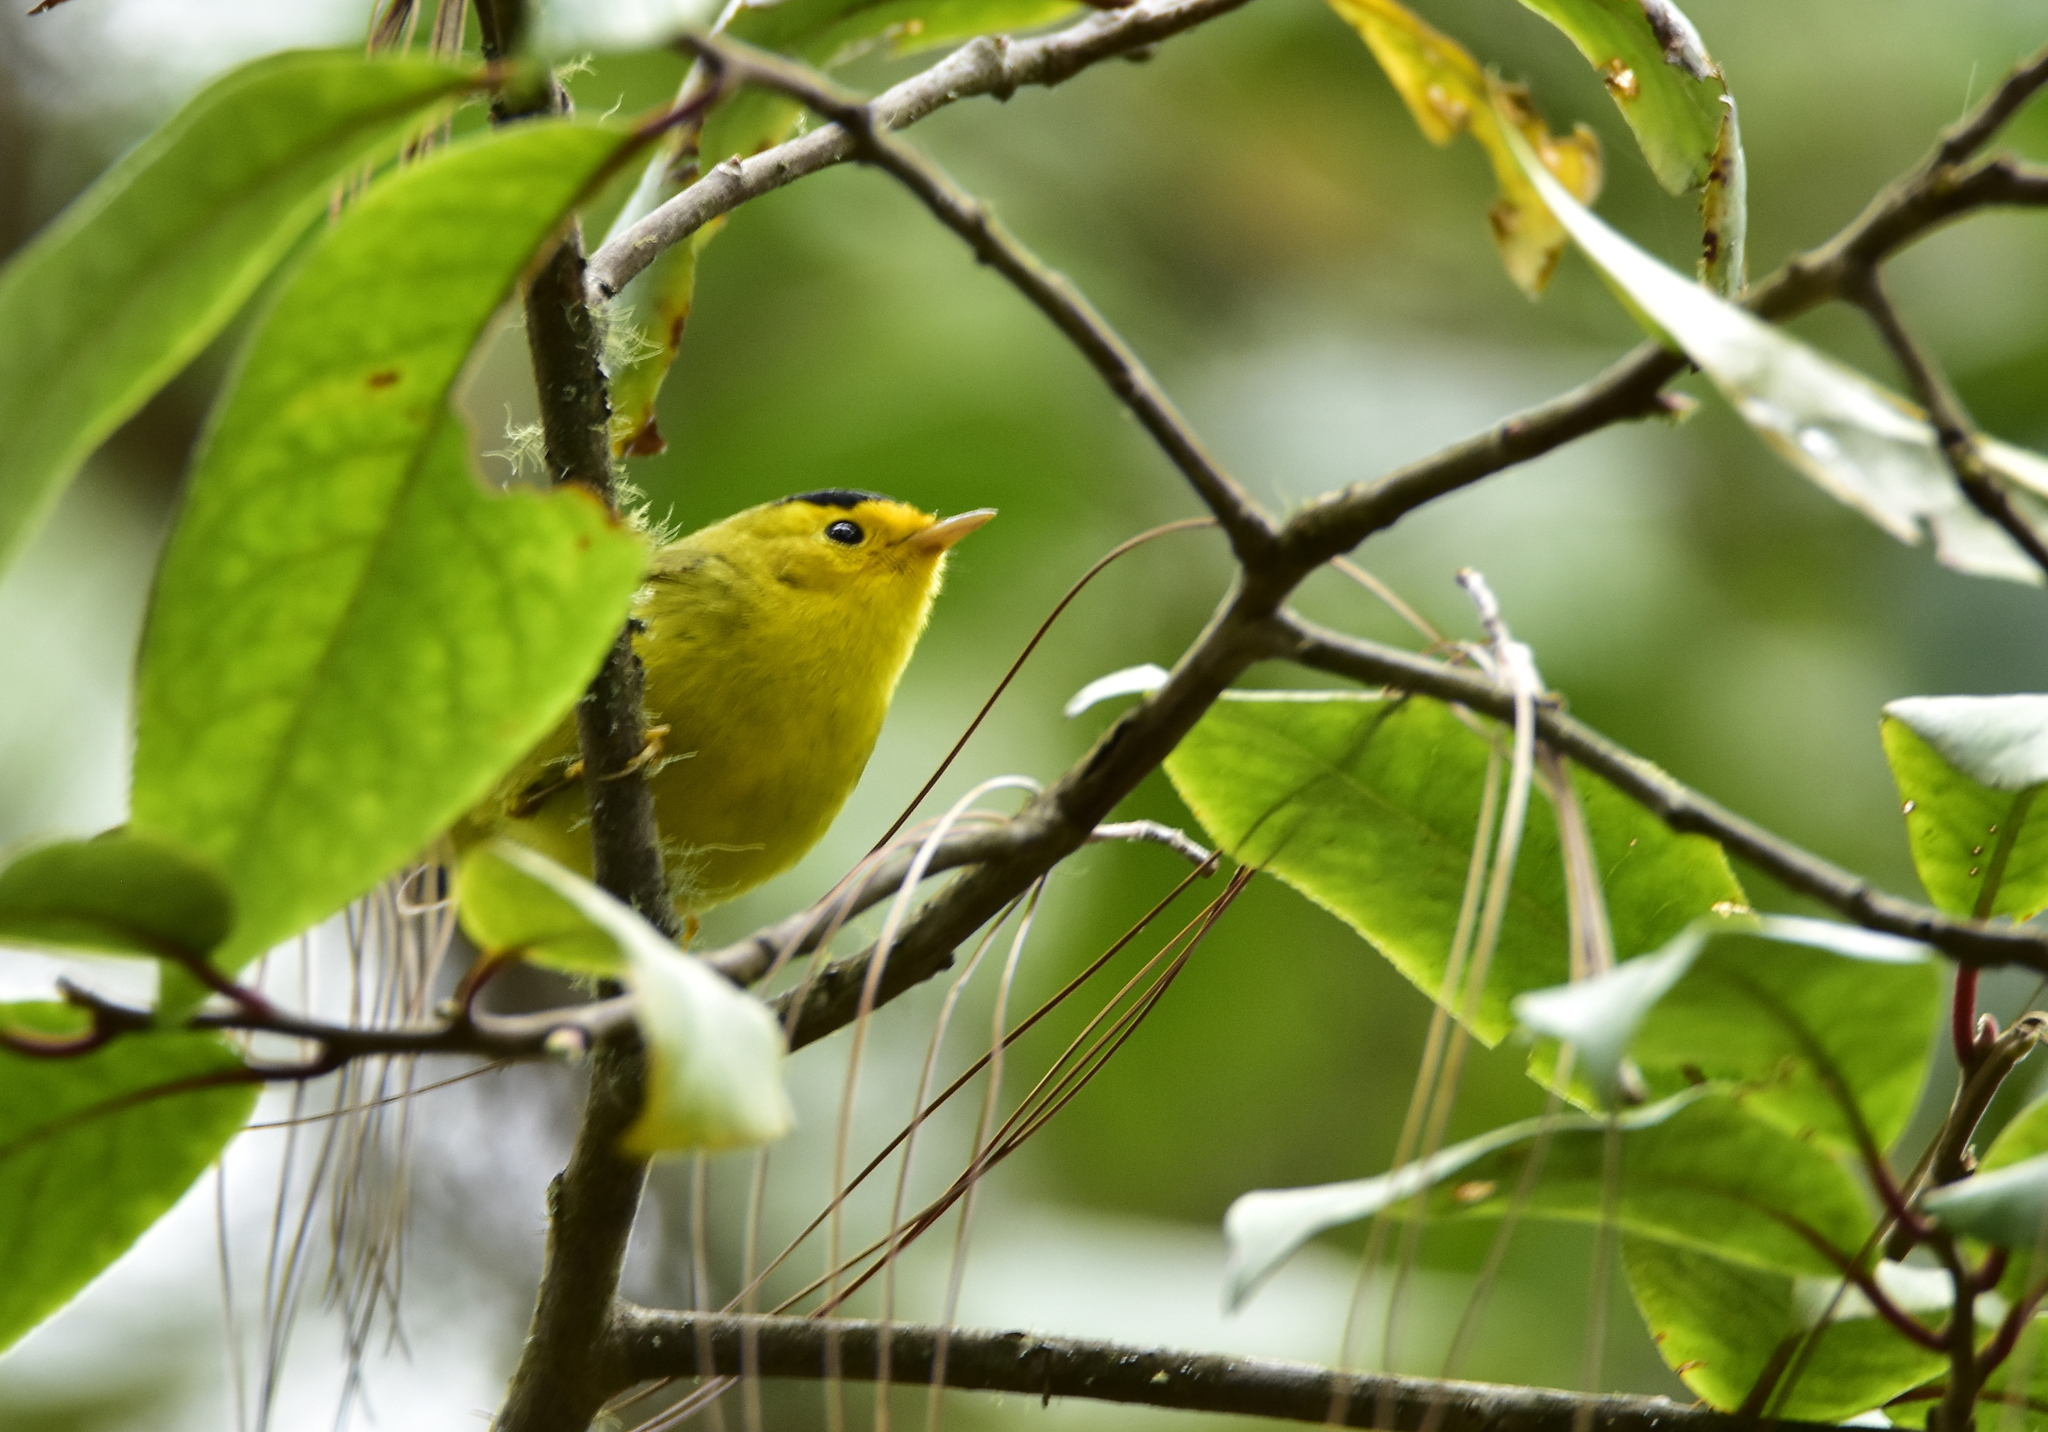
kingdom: Animalia
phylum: Chordata
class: Aves
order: Passeriformes
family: Parulidae
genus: Cardellina
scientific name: Cardellina pusilla
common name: Wilson's warbler
